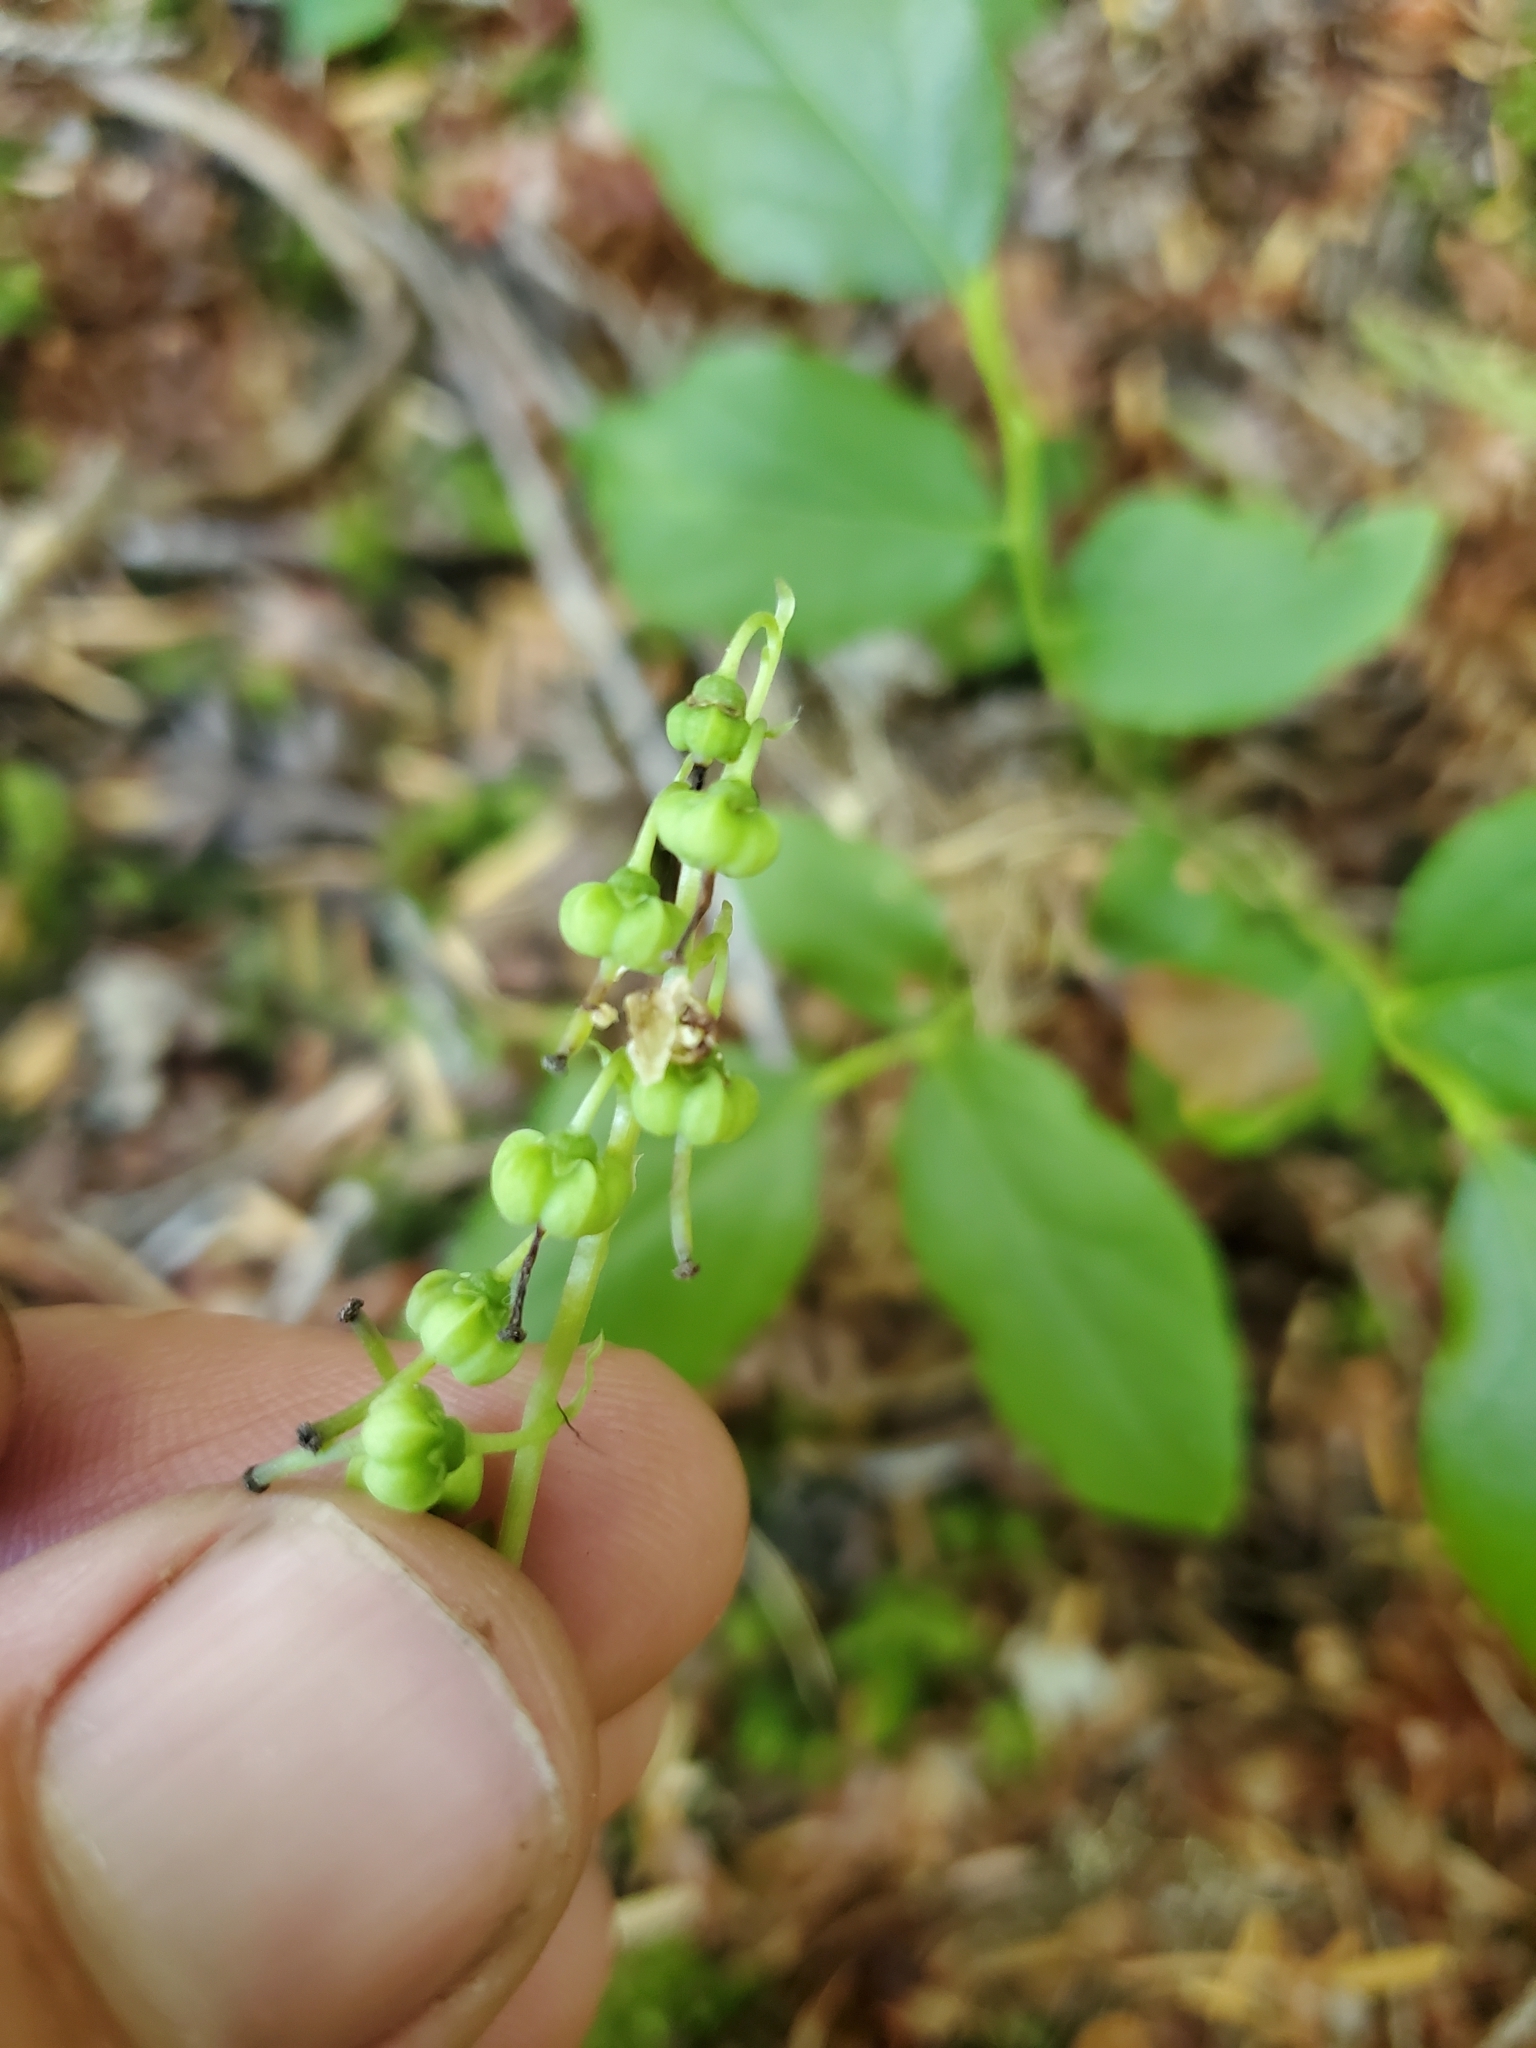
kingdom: Plantae
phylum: Tracheophyta
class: Magnoliopsida
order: Ericales
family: Ericaceae
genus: Orthilia
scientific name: Orthilia secunda
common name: One-sided orthilia
